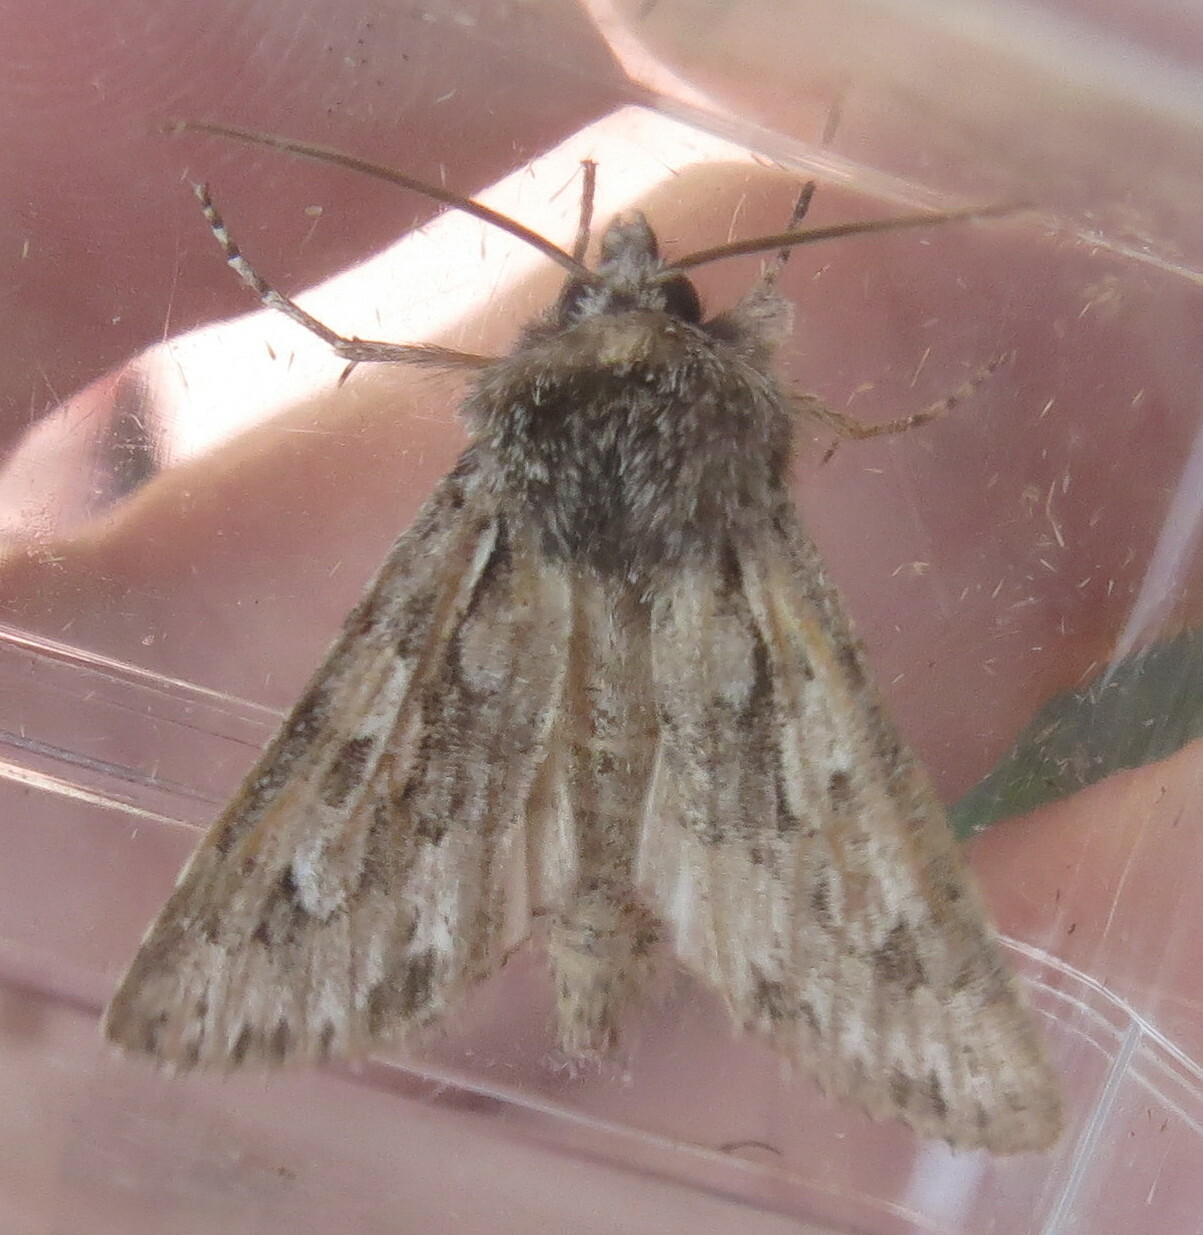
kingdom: Animalia
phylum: Arthropoda
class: Insecta
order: Lepidoptera
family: Noctuidae
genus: Xylocampa
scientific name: Xylocampa areola
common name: Early grey
